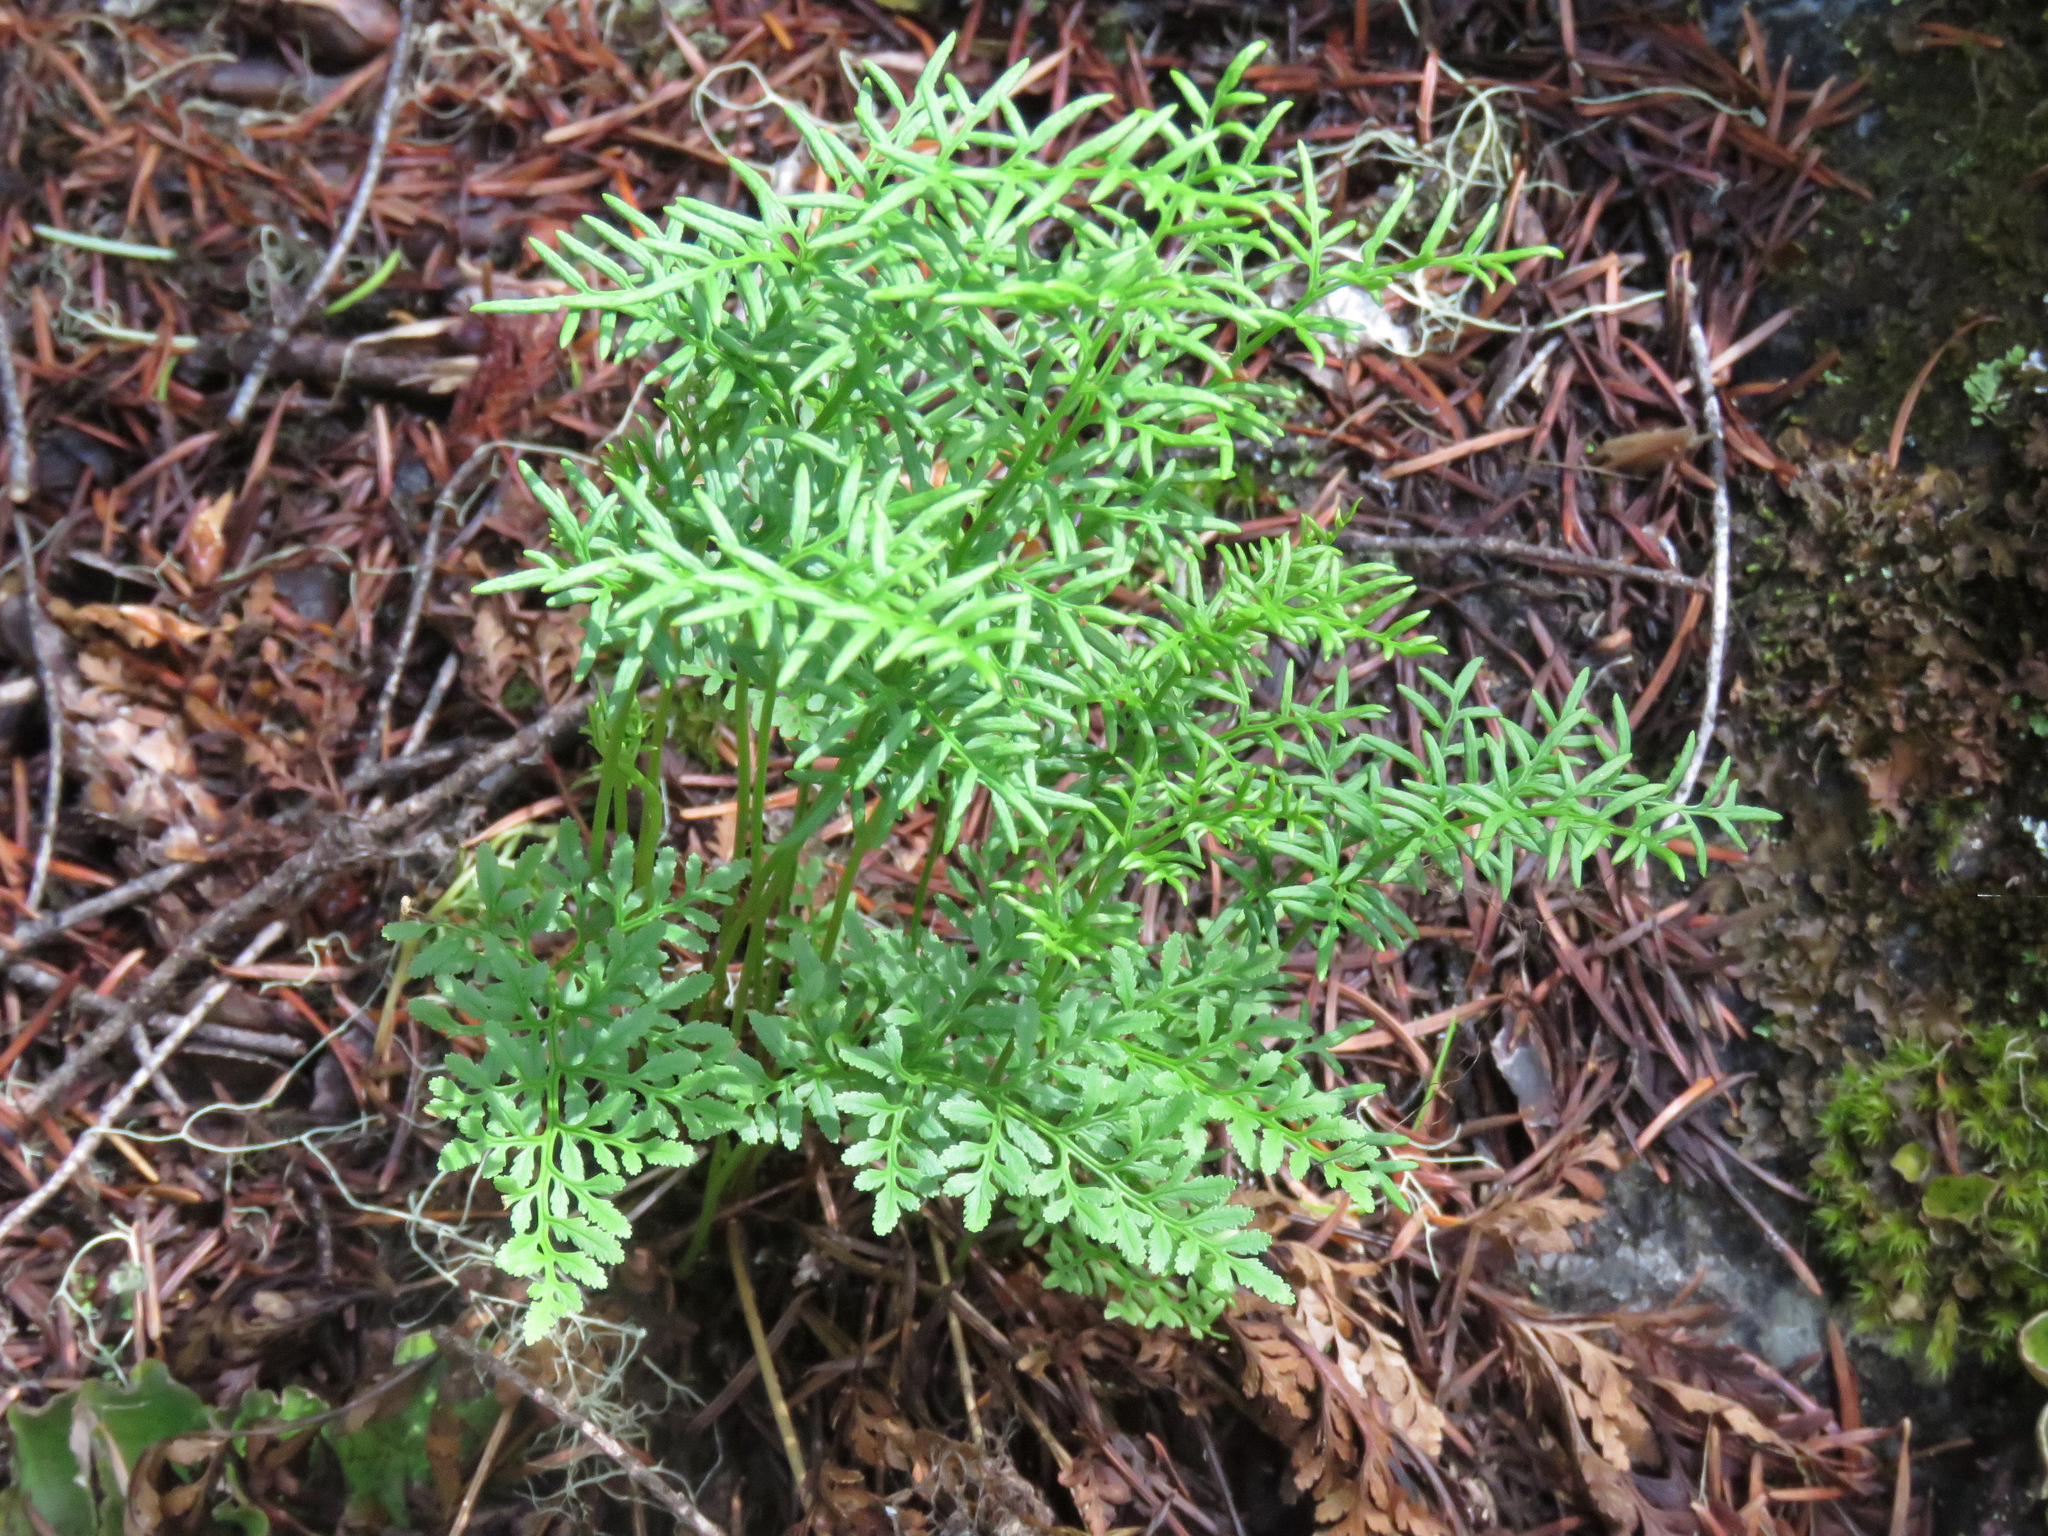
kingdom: Plantae
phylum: Tracheophyta
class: Polypodiopsida
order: Polypodiales
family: Pteridaceae
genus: Cryptogramma
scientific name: Cryptogramma acrostichoides
